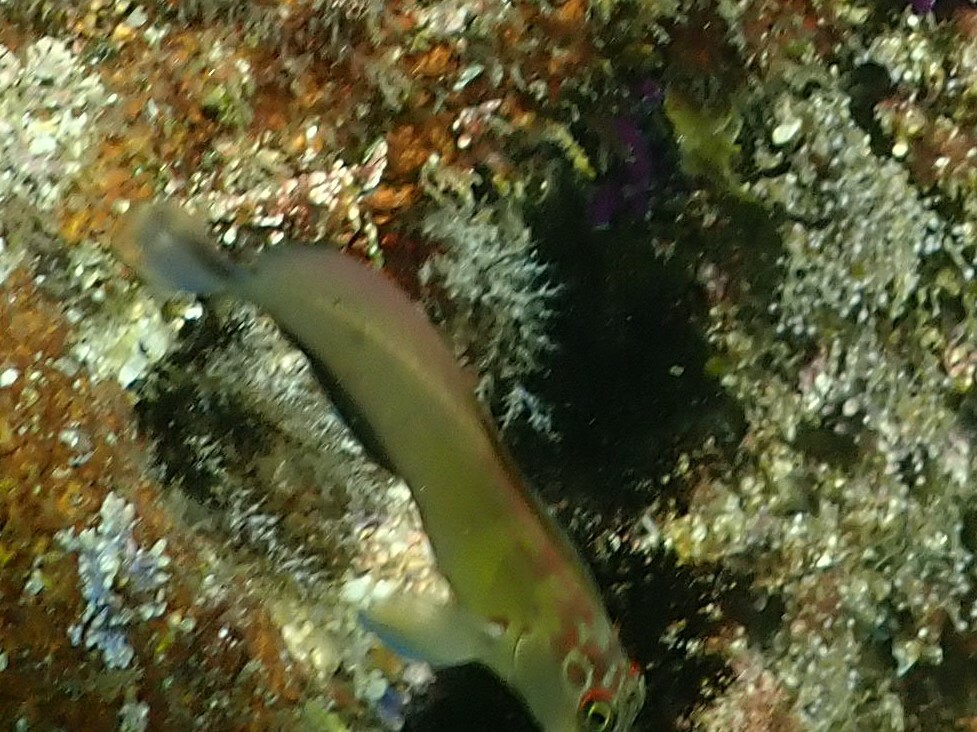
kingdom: Animalia
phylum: Chordata
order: Perciformes
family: Blenniidae
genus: Ophioblennius
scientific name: Ophioblennius steindachneri
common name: Panamic fanged blenny
